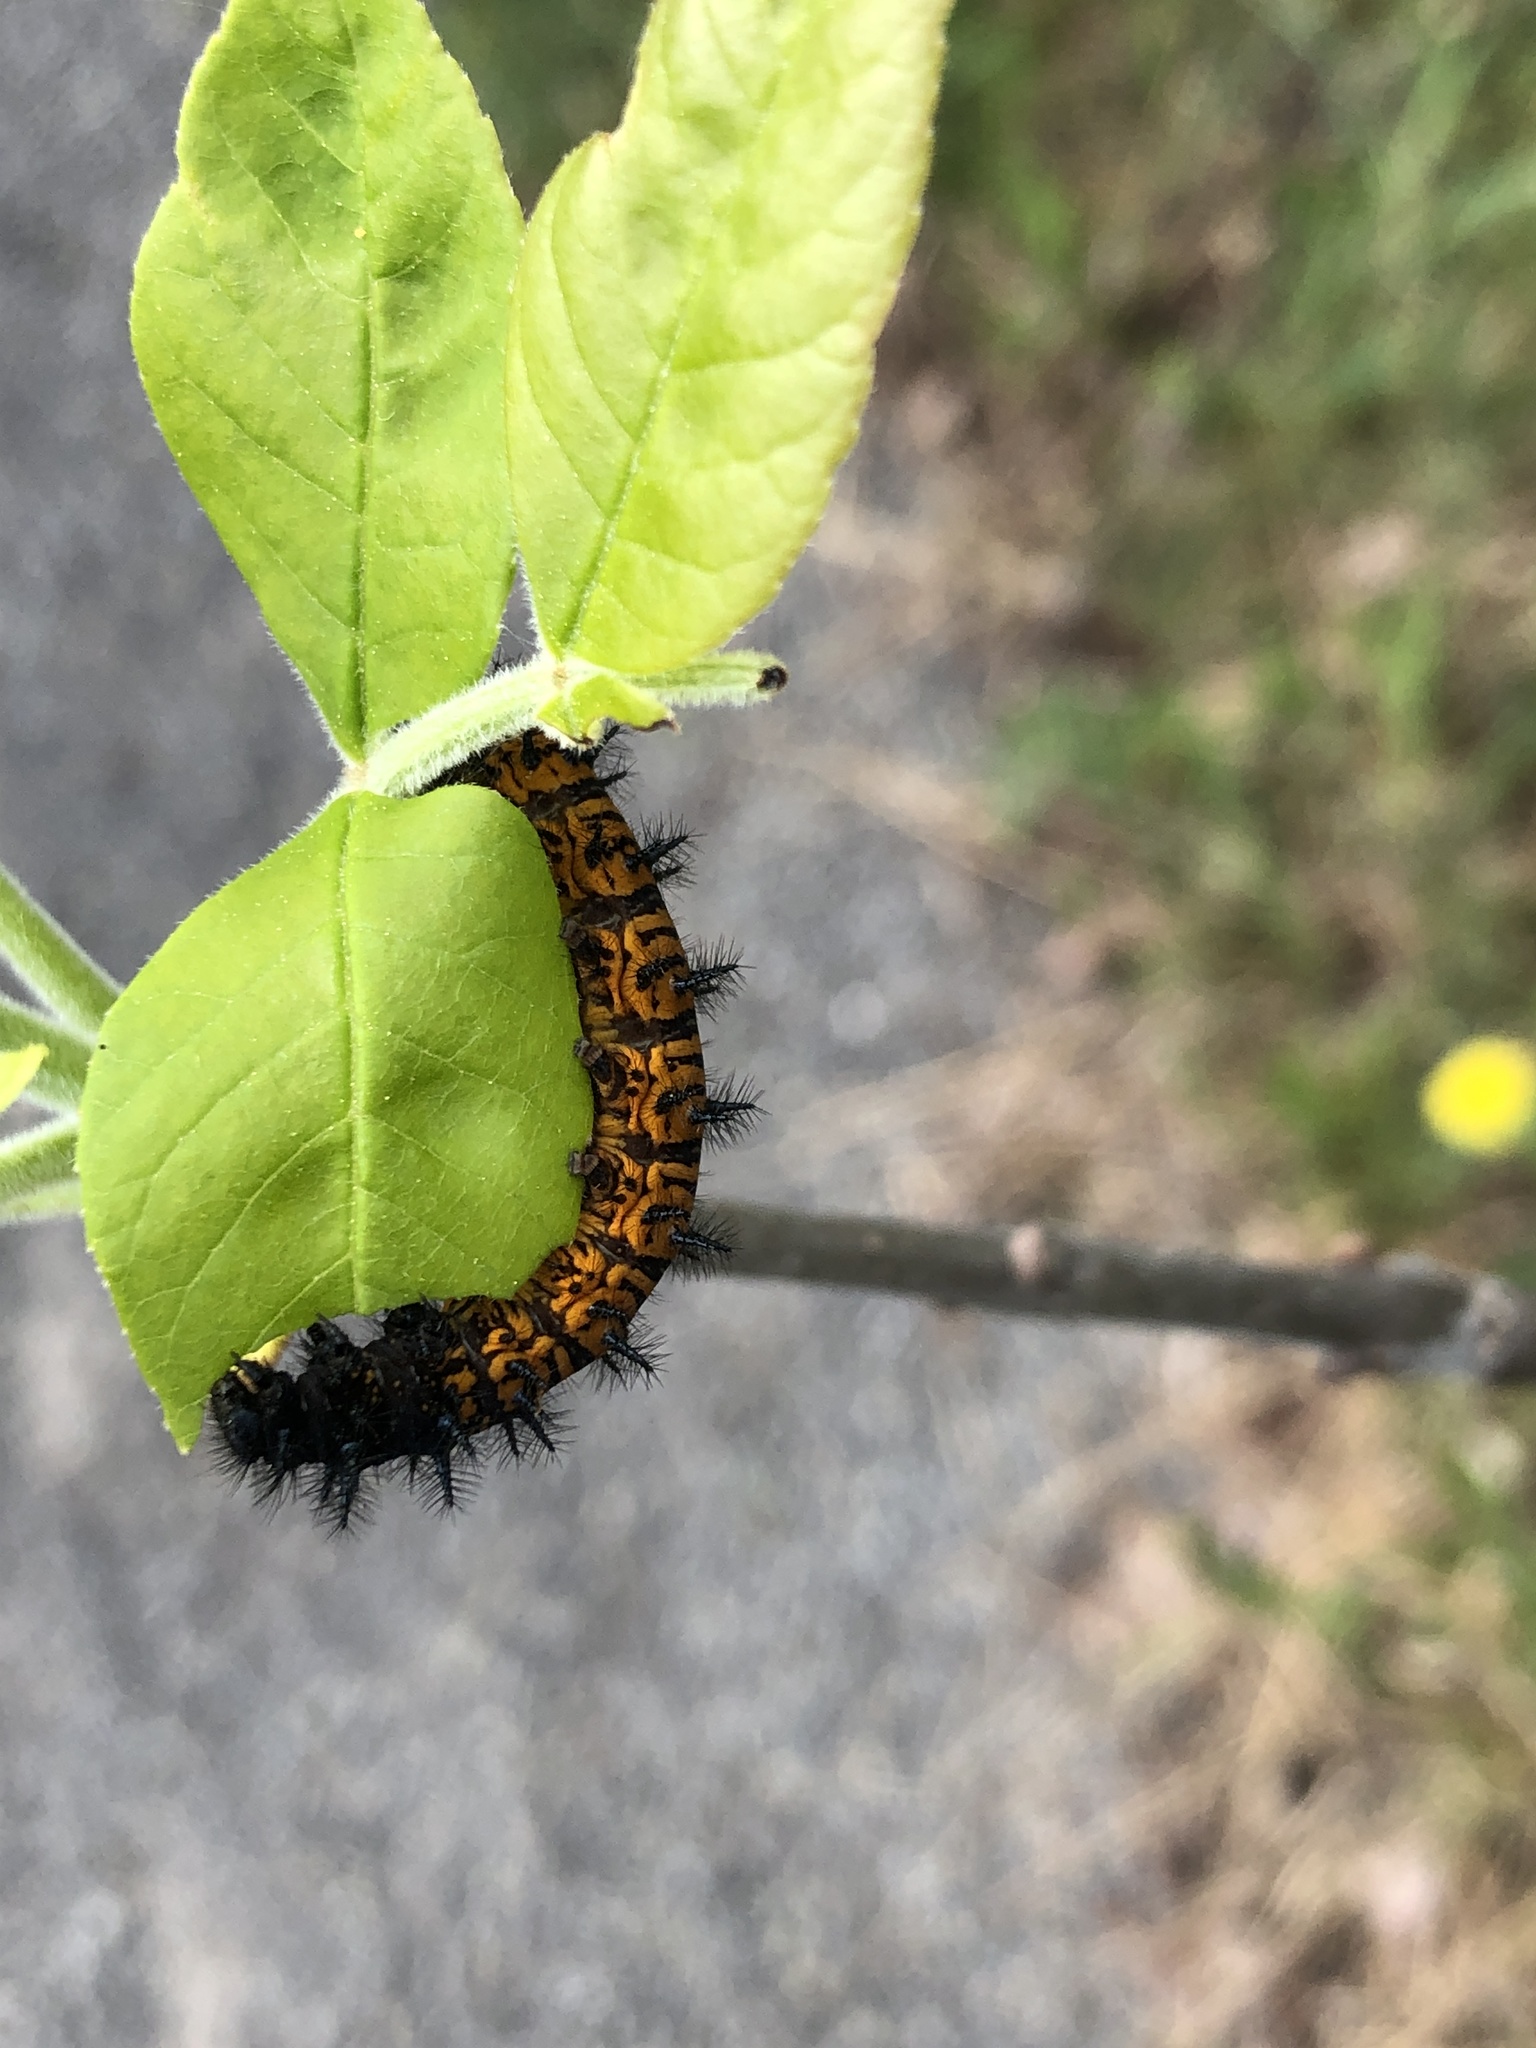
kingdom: Animalia
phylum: Arthropoda
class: Insecta
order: Lepidoptera
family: Nymphalidae
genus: Euphydryas
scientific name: Euphydryas phaeton
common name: Baltimore checkerspot
